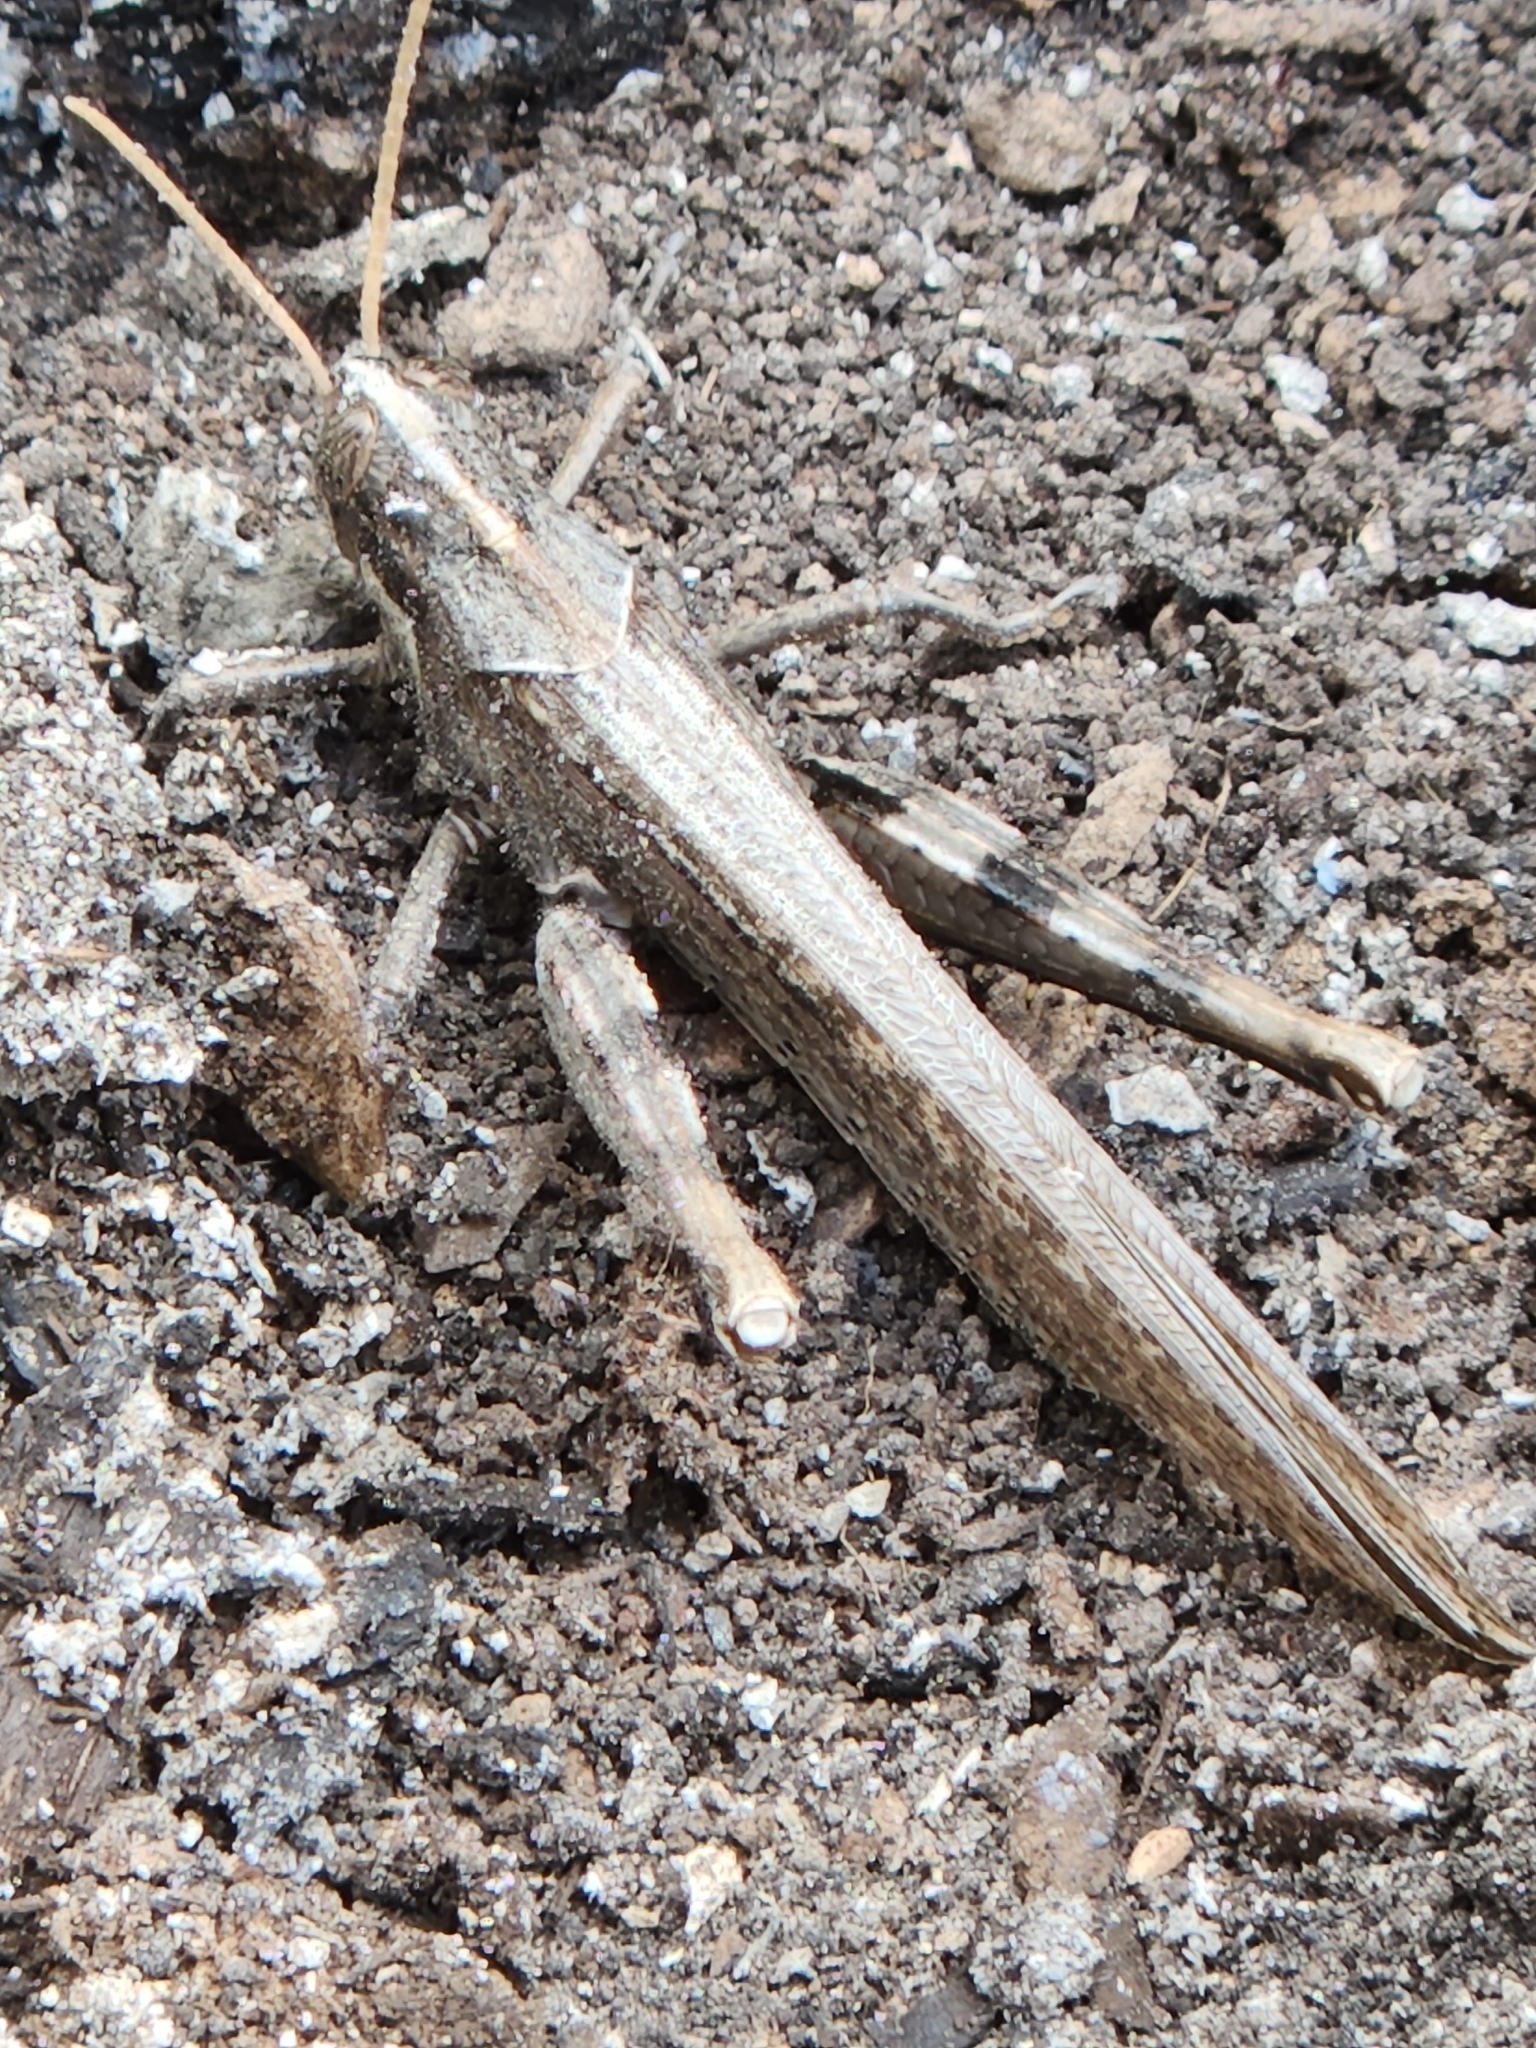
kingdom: Animalia
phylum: Arthropoda
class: Insecta
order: Orthoptera
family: Acrididae
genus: Schistocerca
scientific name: Schistocerca nitens
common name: Vagrant grasshopper
